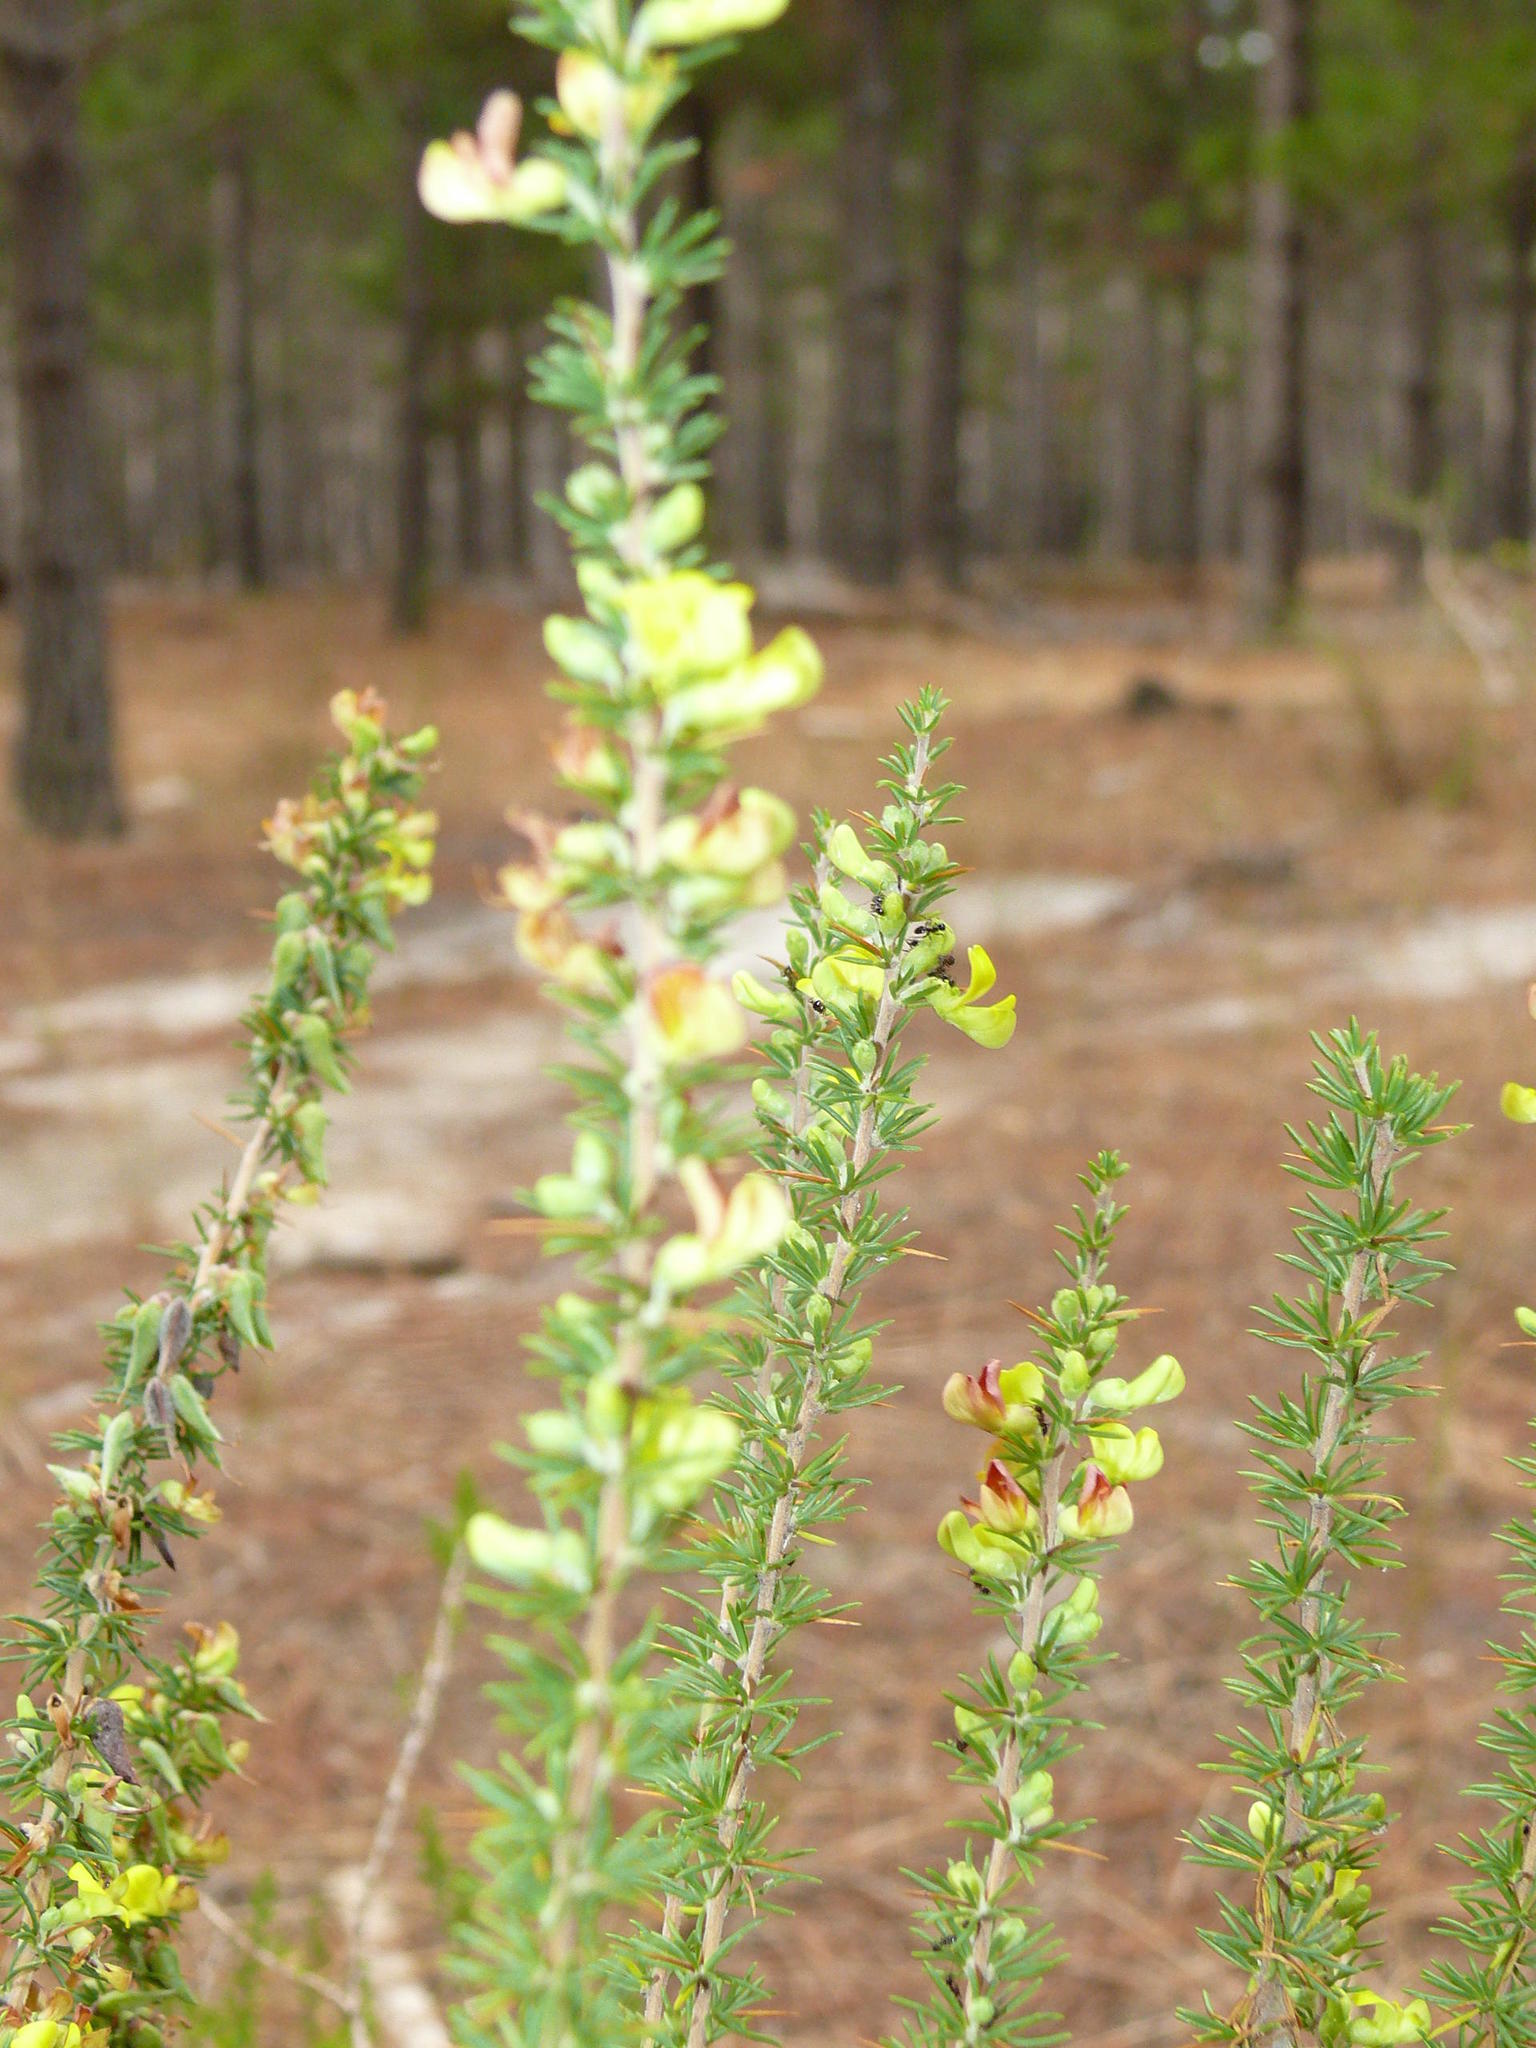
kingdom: Plantae
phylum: Tracheophyta
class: Magnoliopsida
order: Fabales
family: Fabaceae
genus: Aspalathus
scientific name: Aspalathus spinosa
